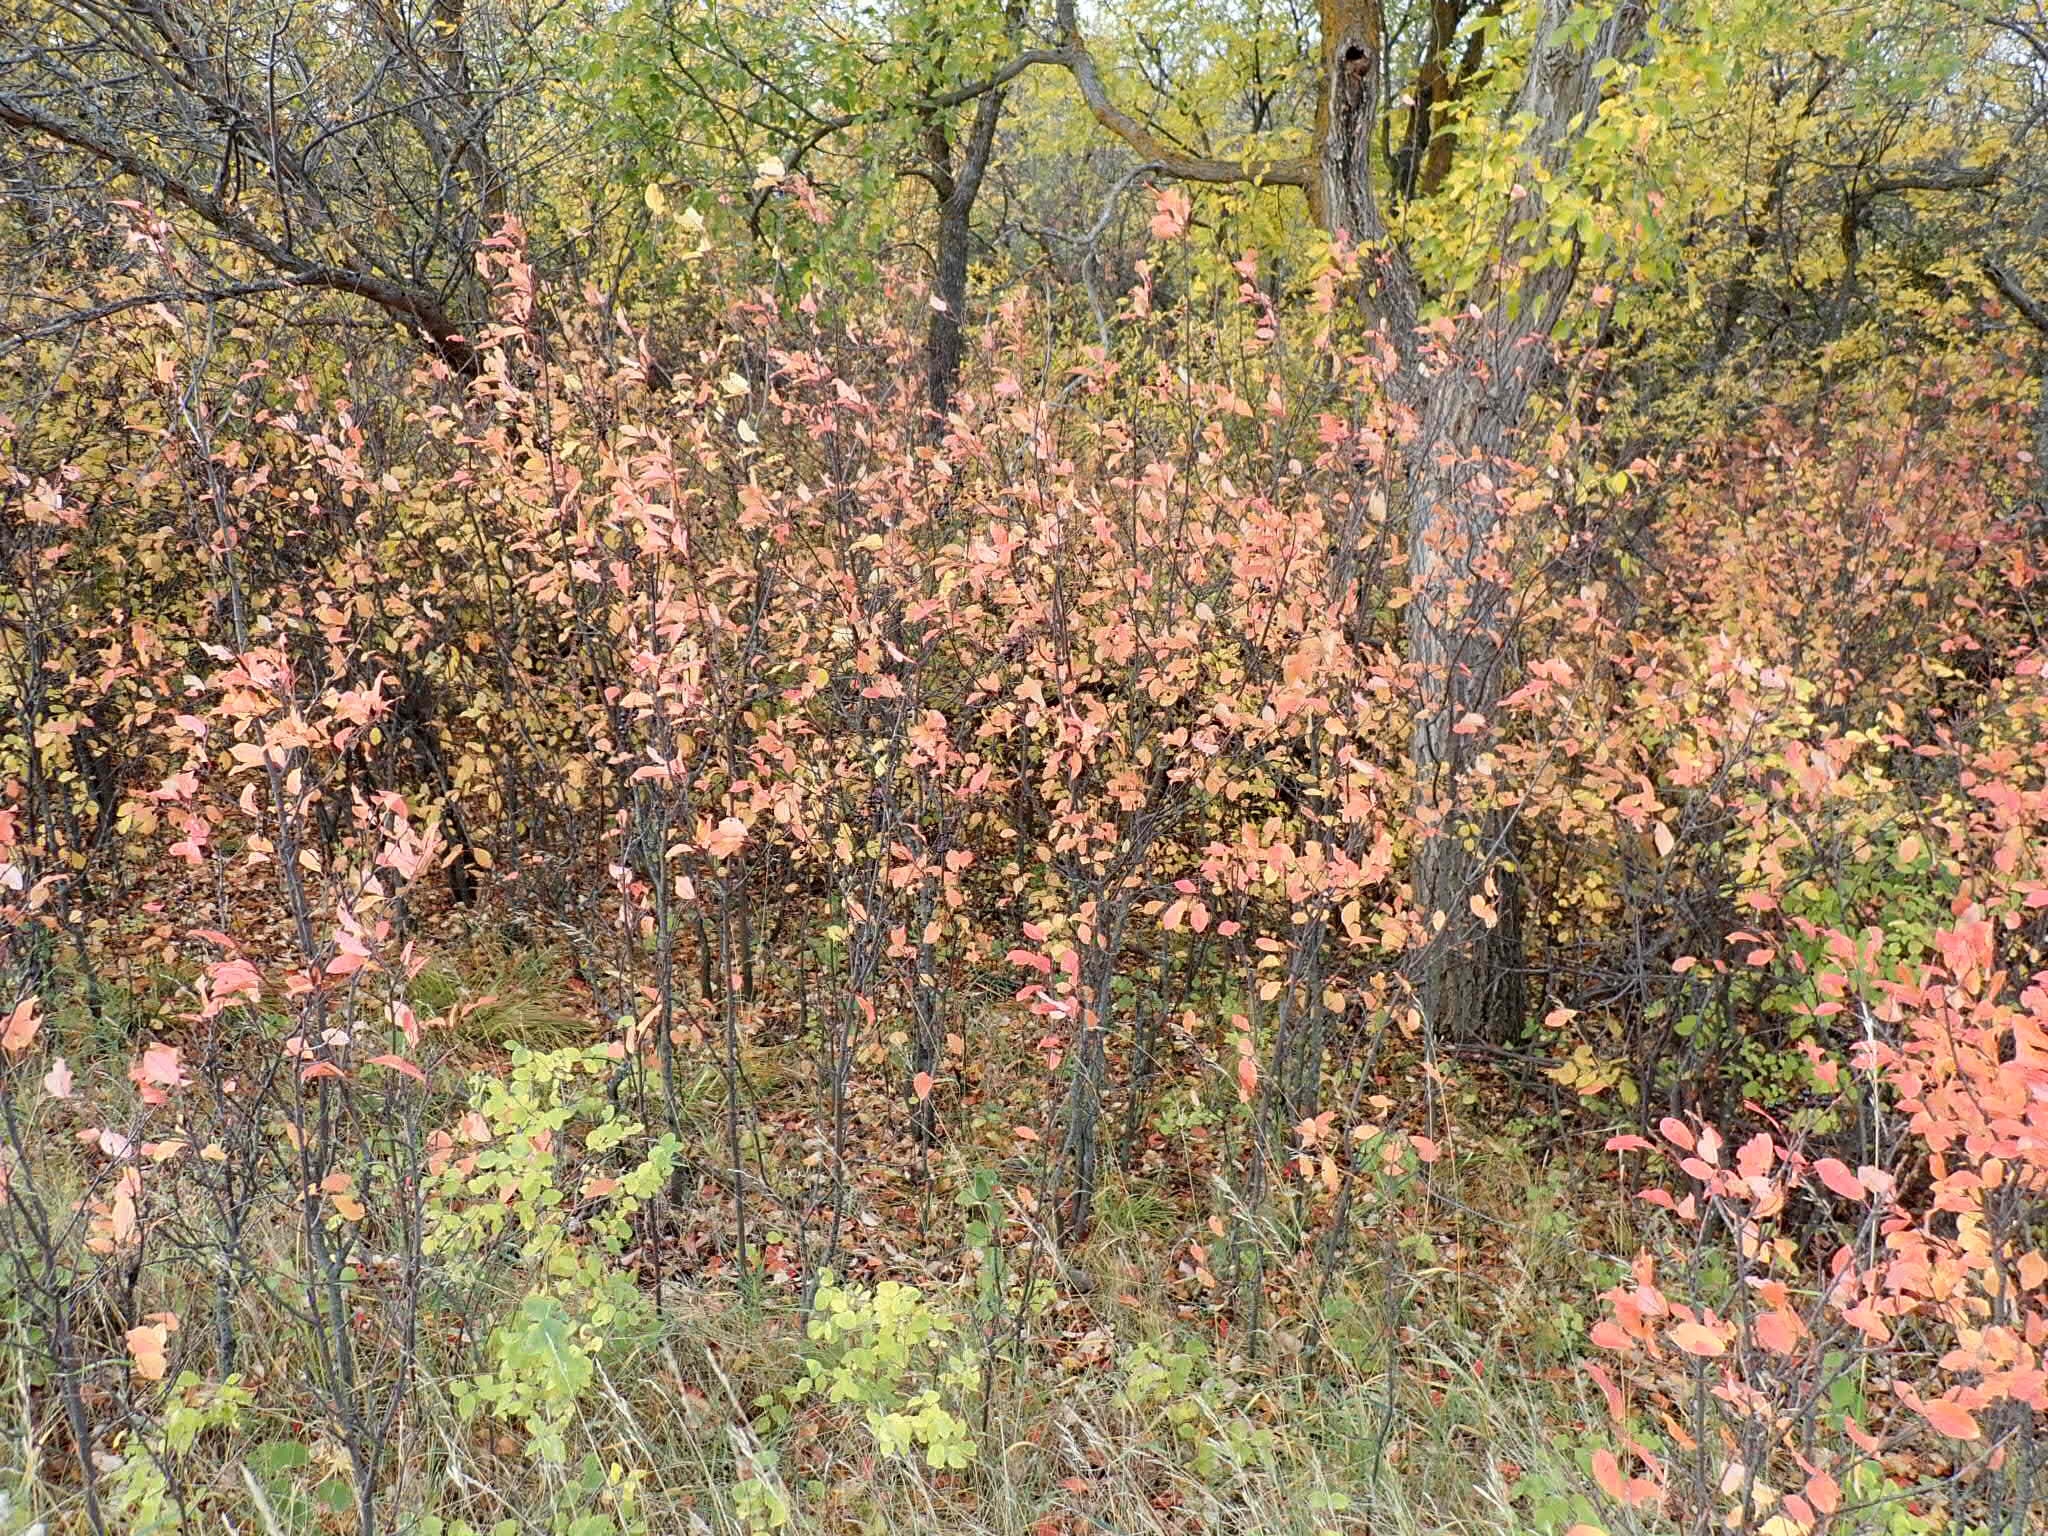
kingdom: Plantae
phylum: Tracheophyta
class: Magnoliopsida
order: Rosales
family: Rosaceae
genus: Prunus
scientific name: Prunus virginiana
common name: Chokecherry
